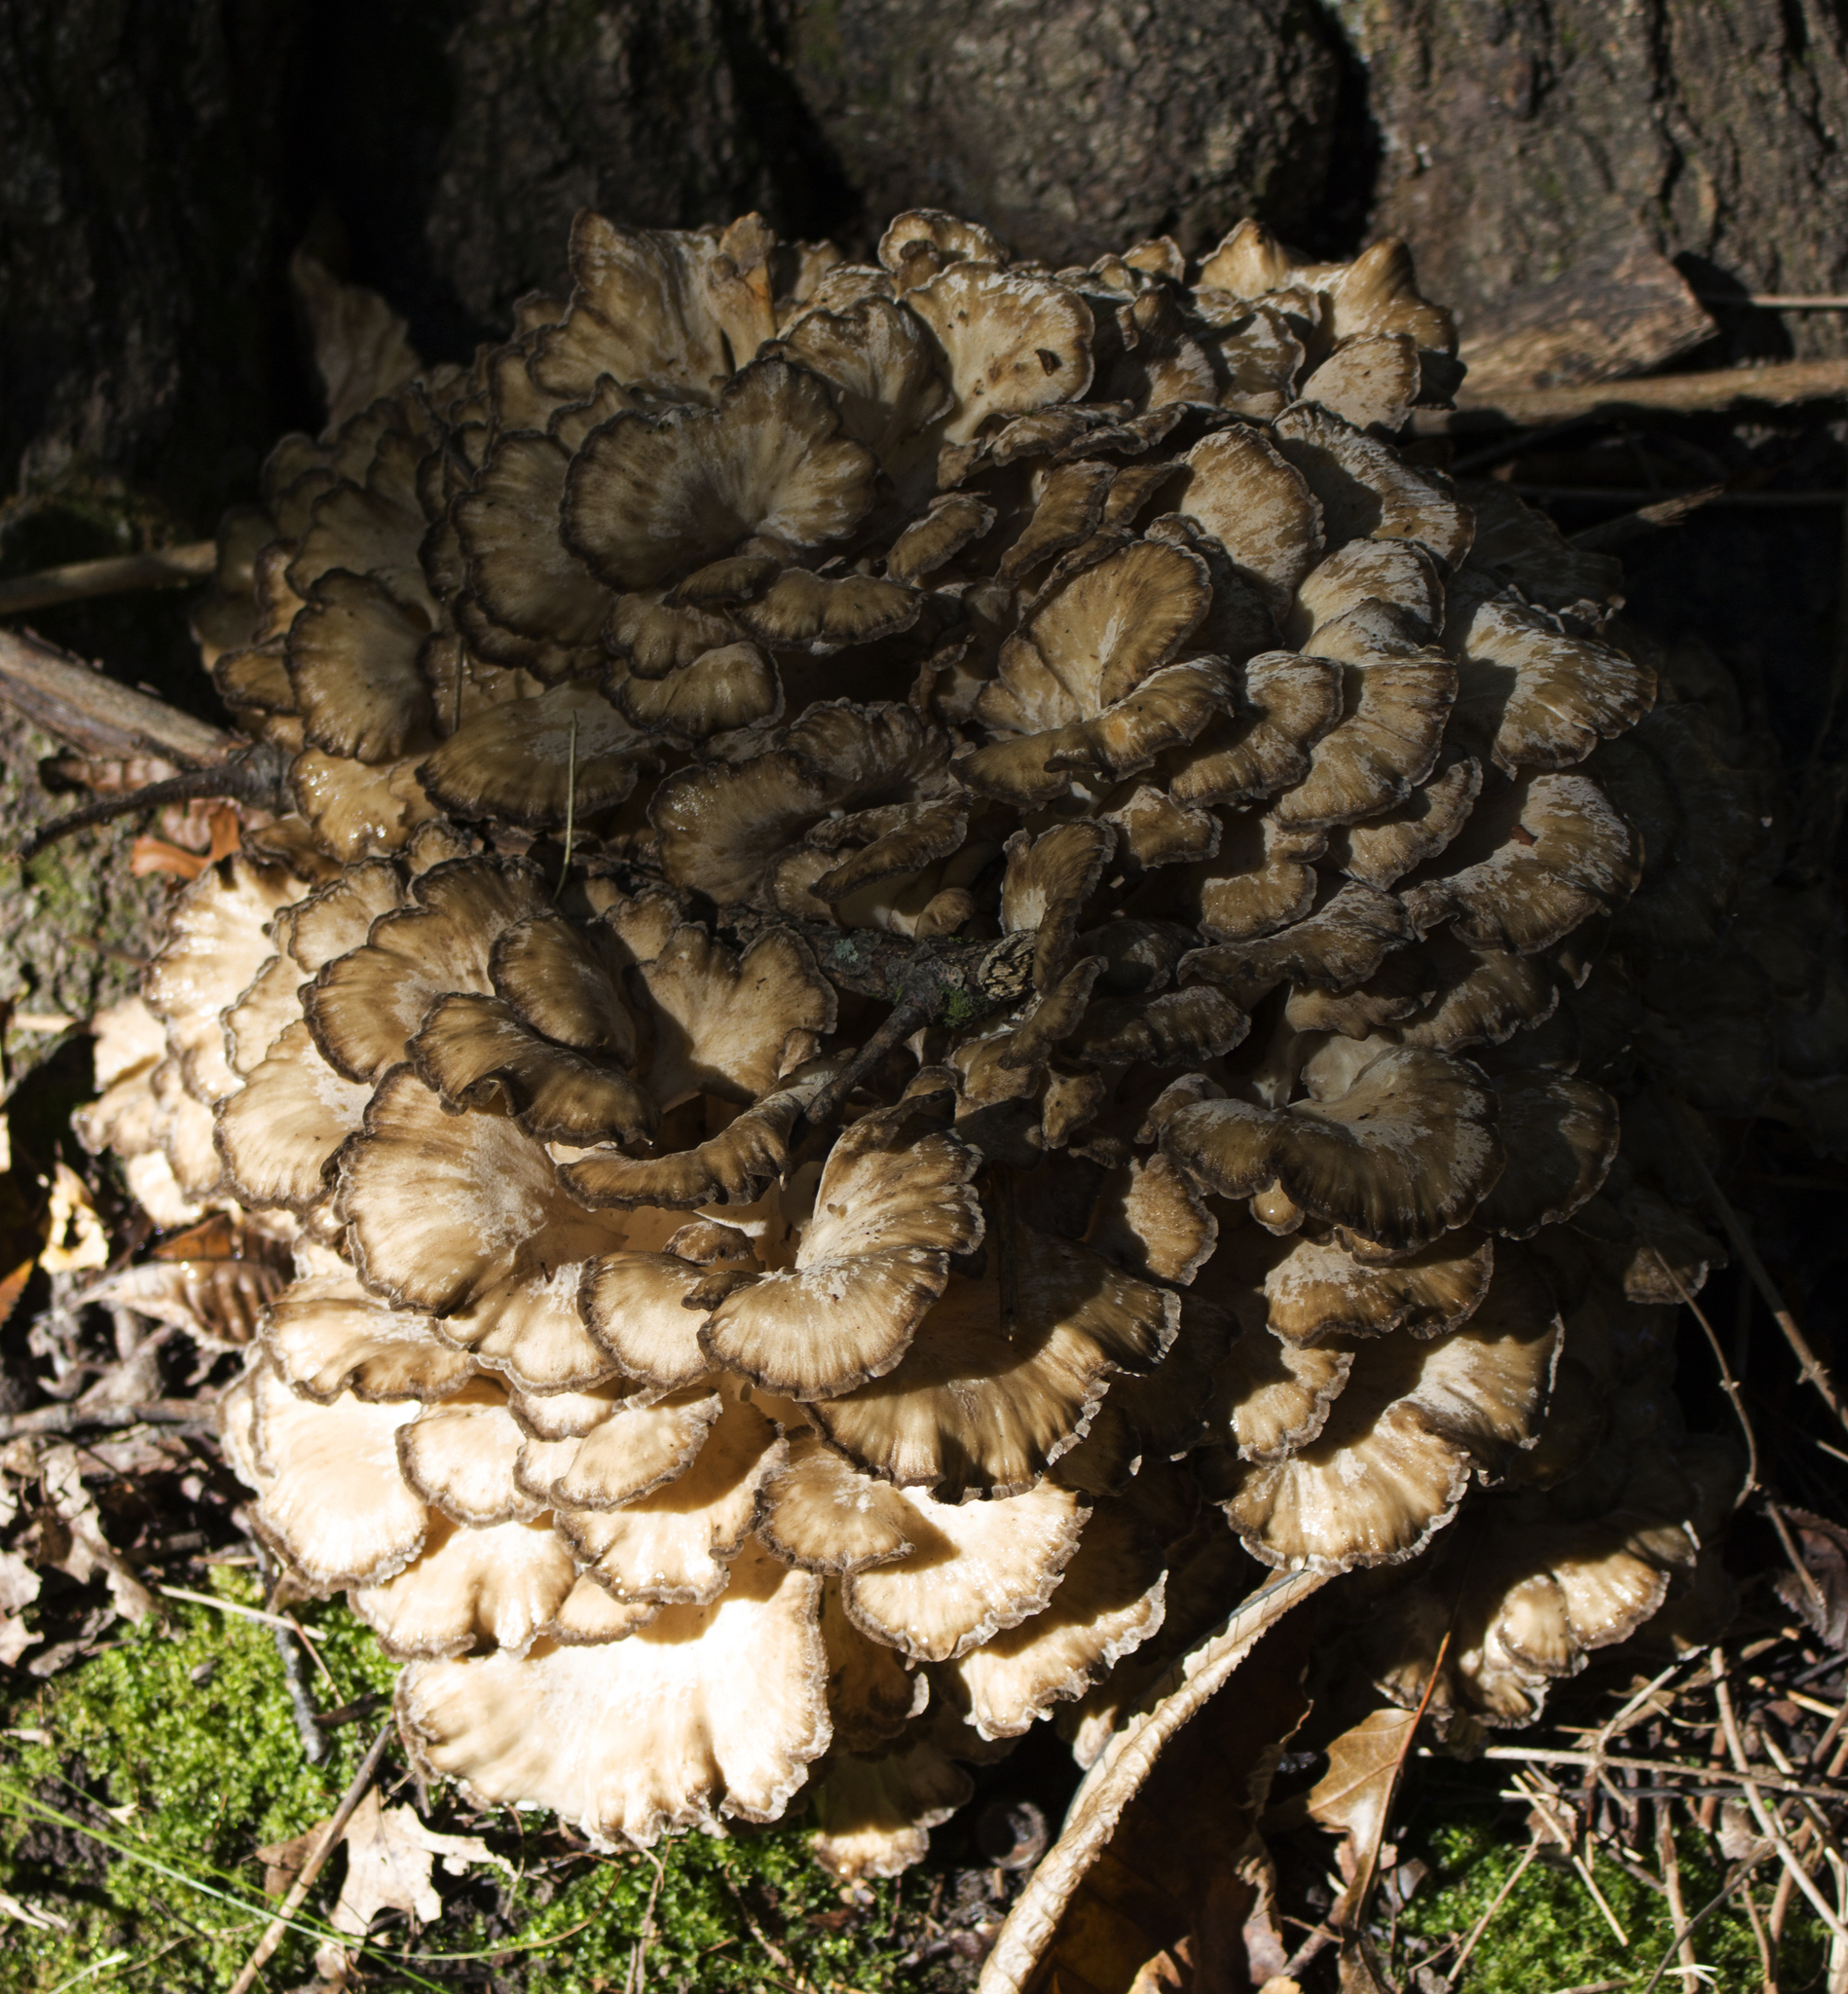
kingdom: Fungi
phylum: Basidiomycota
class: Agaricomycetes
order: Polyporales
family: Grifolaceae
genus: Grifola
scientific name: Grifola frondosa
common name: Hen of the woods
